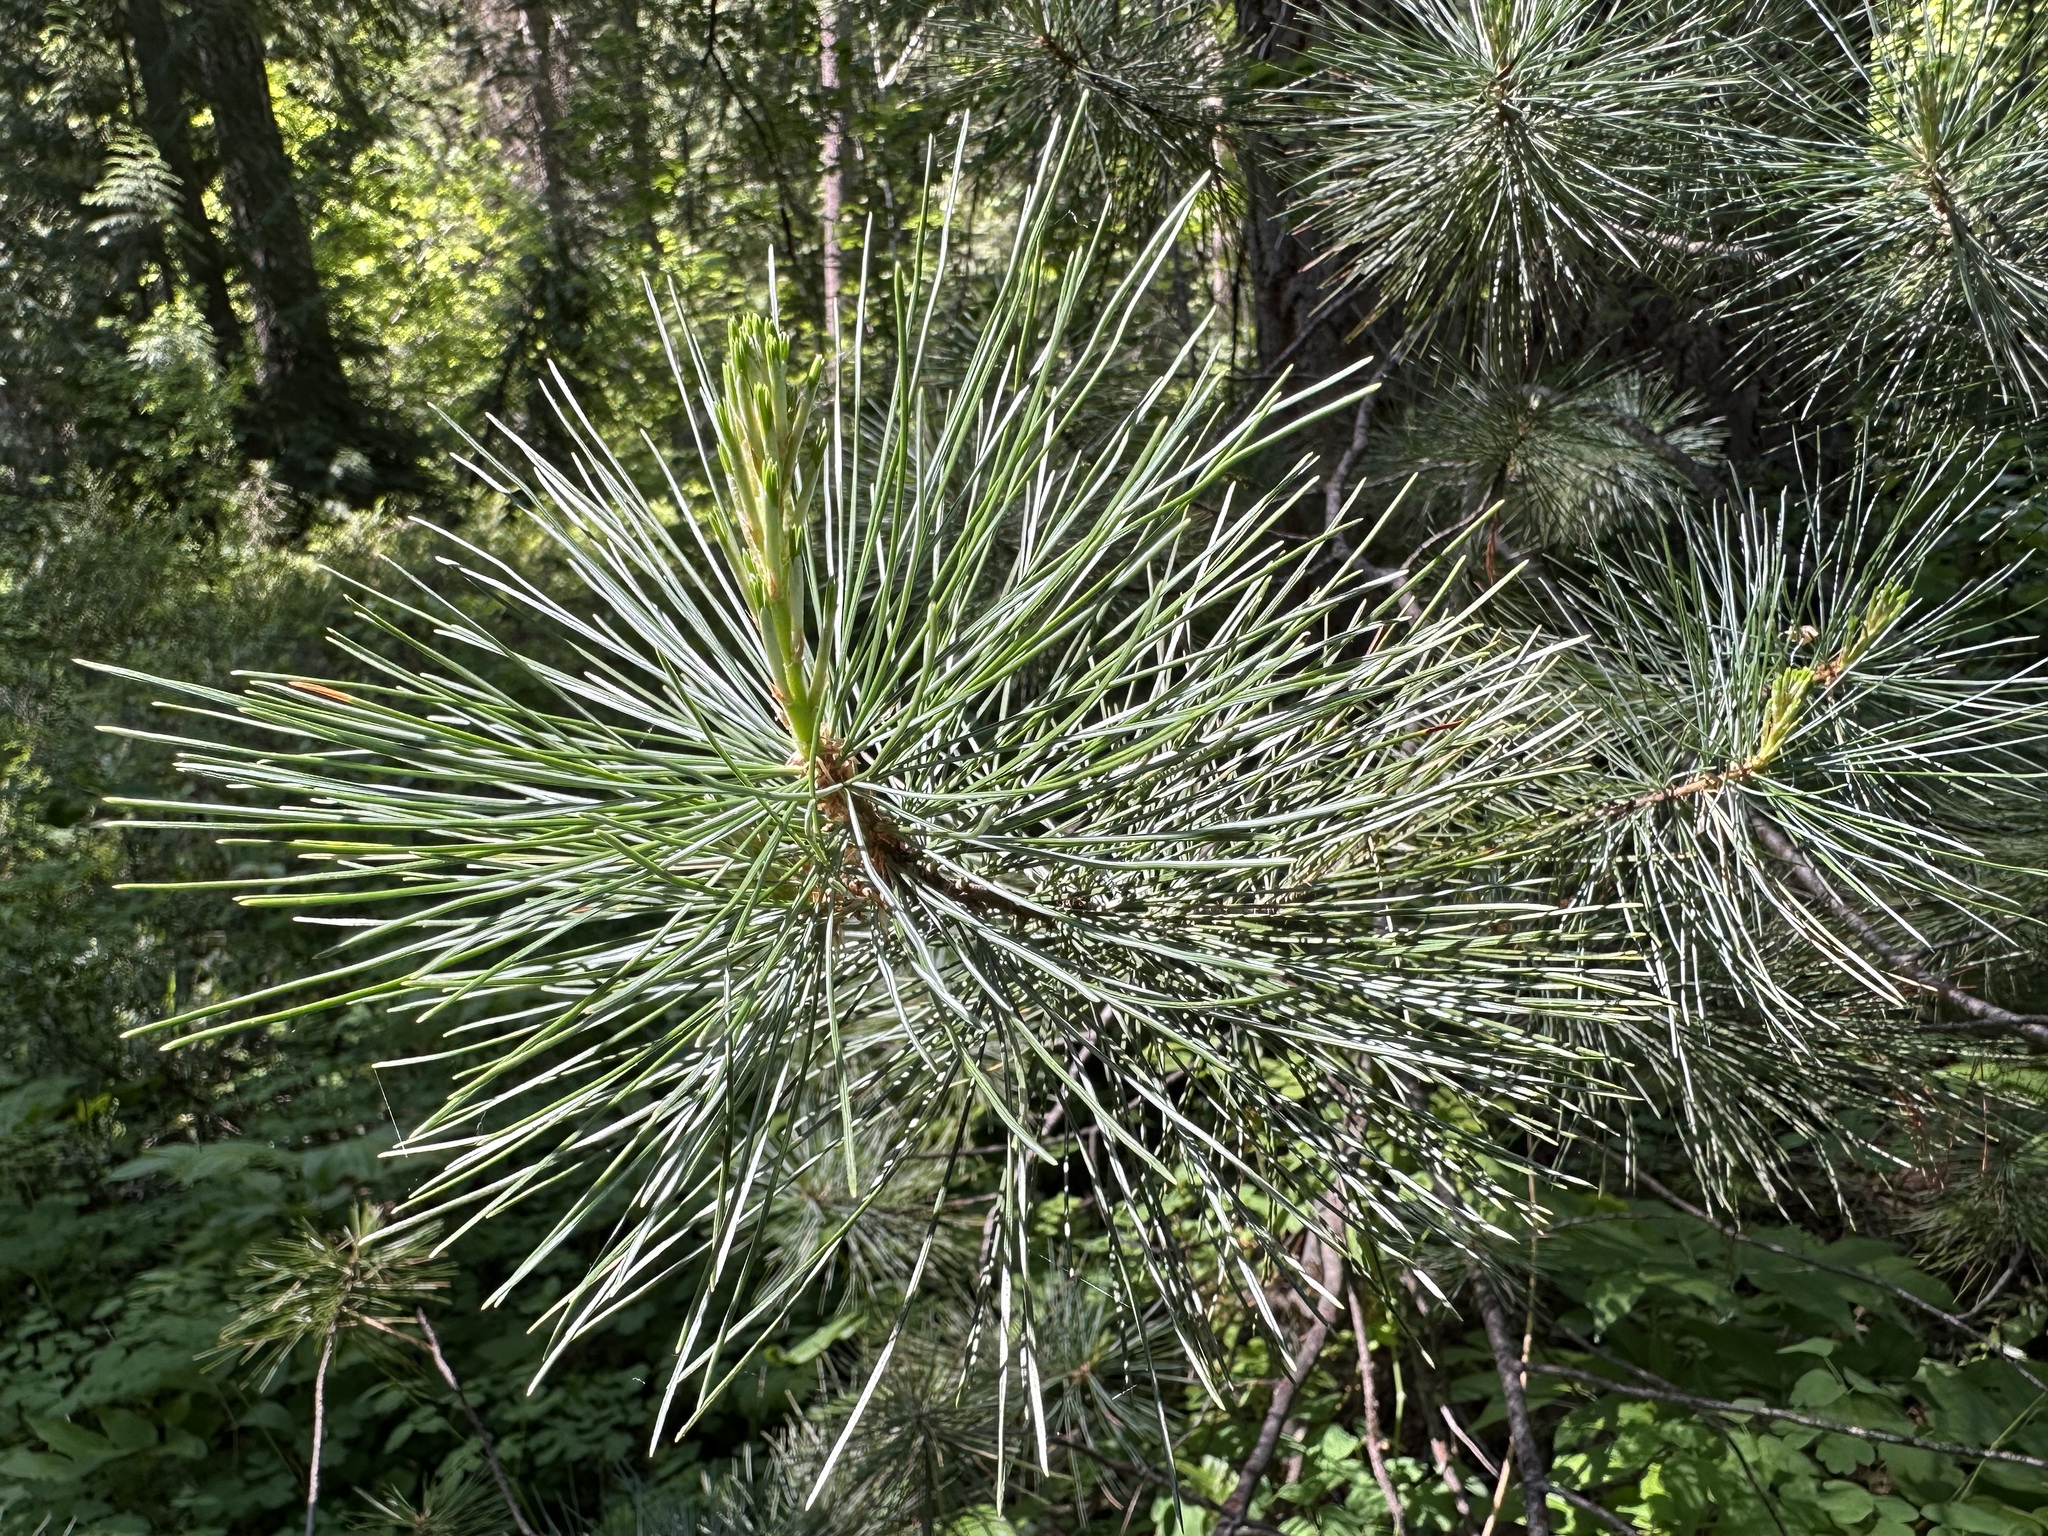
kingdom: Plantae
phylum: Tracheophyta
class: Pinopsida
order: Pinales
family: Pinaceae
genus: Pinus
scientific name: Pinus monticola
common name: Western white pine
